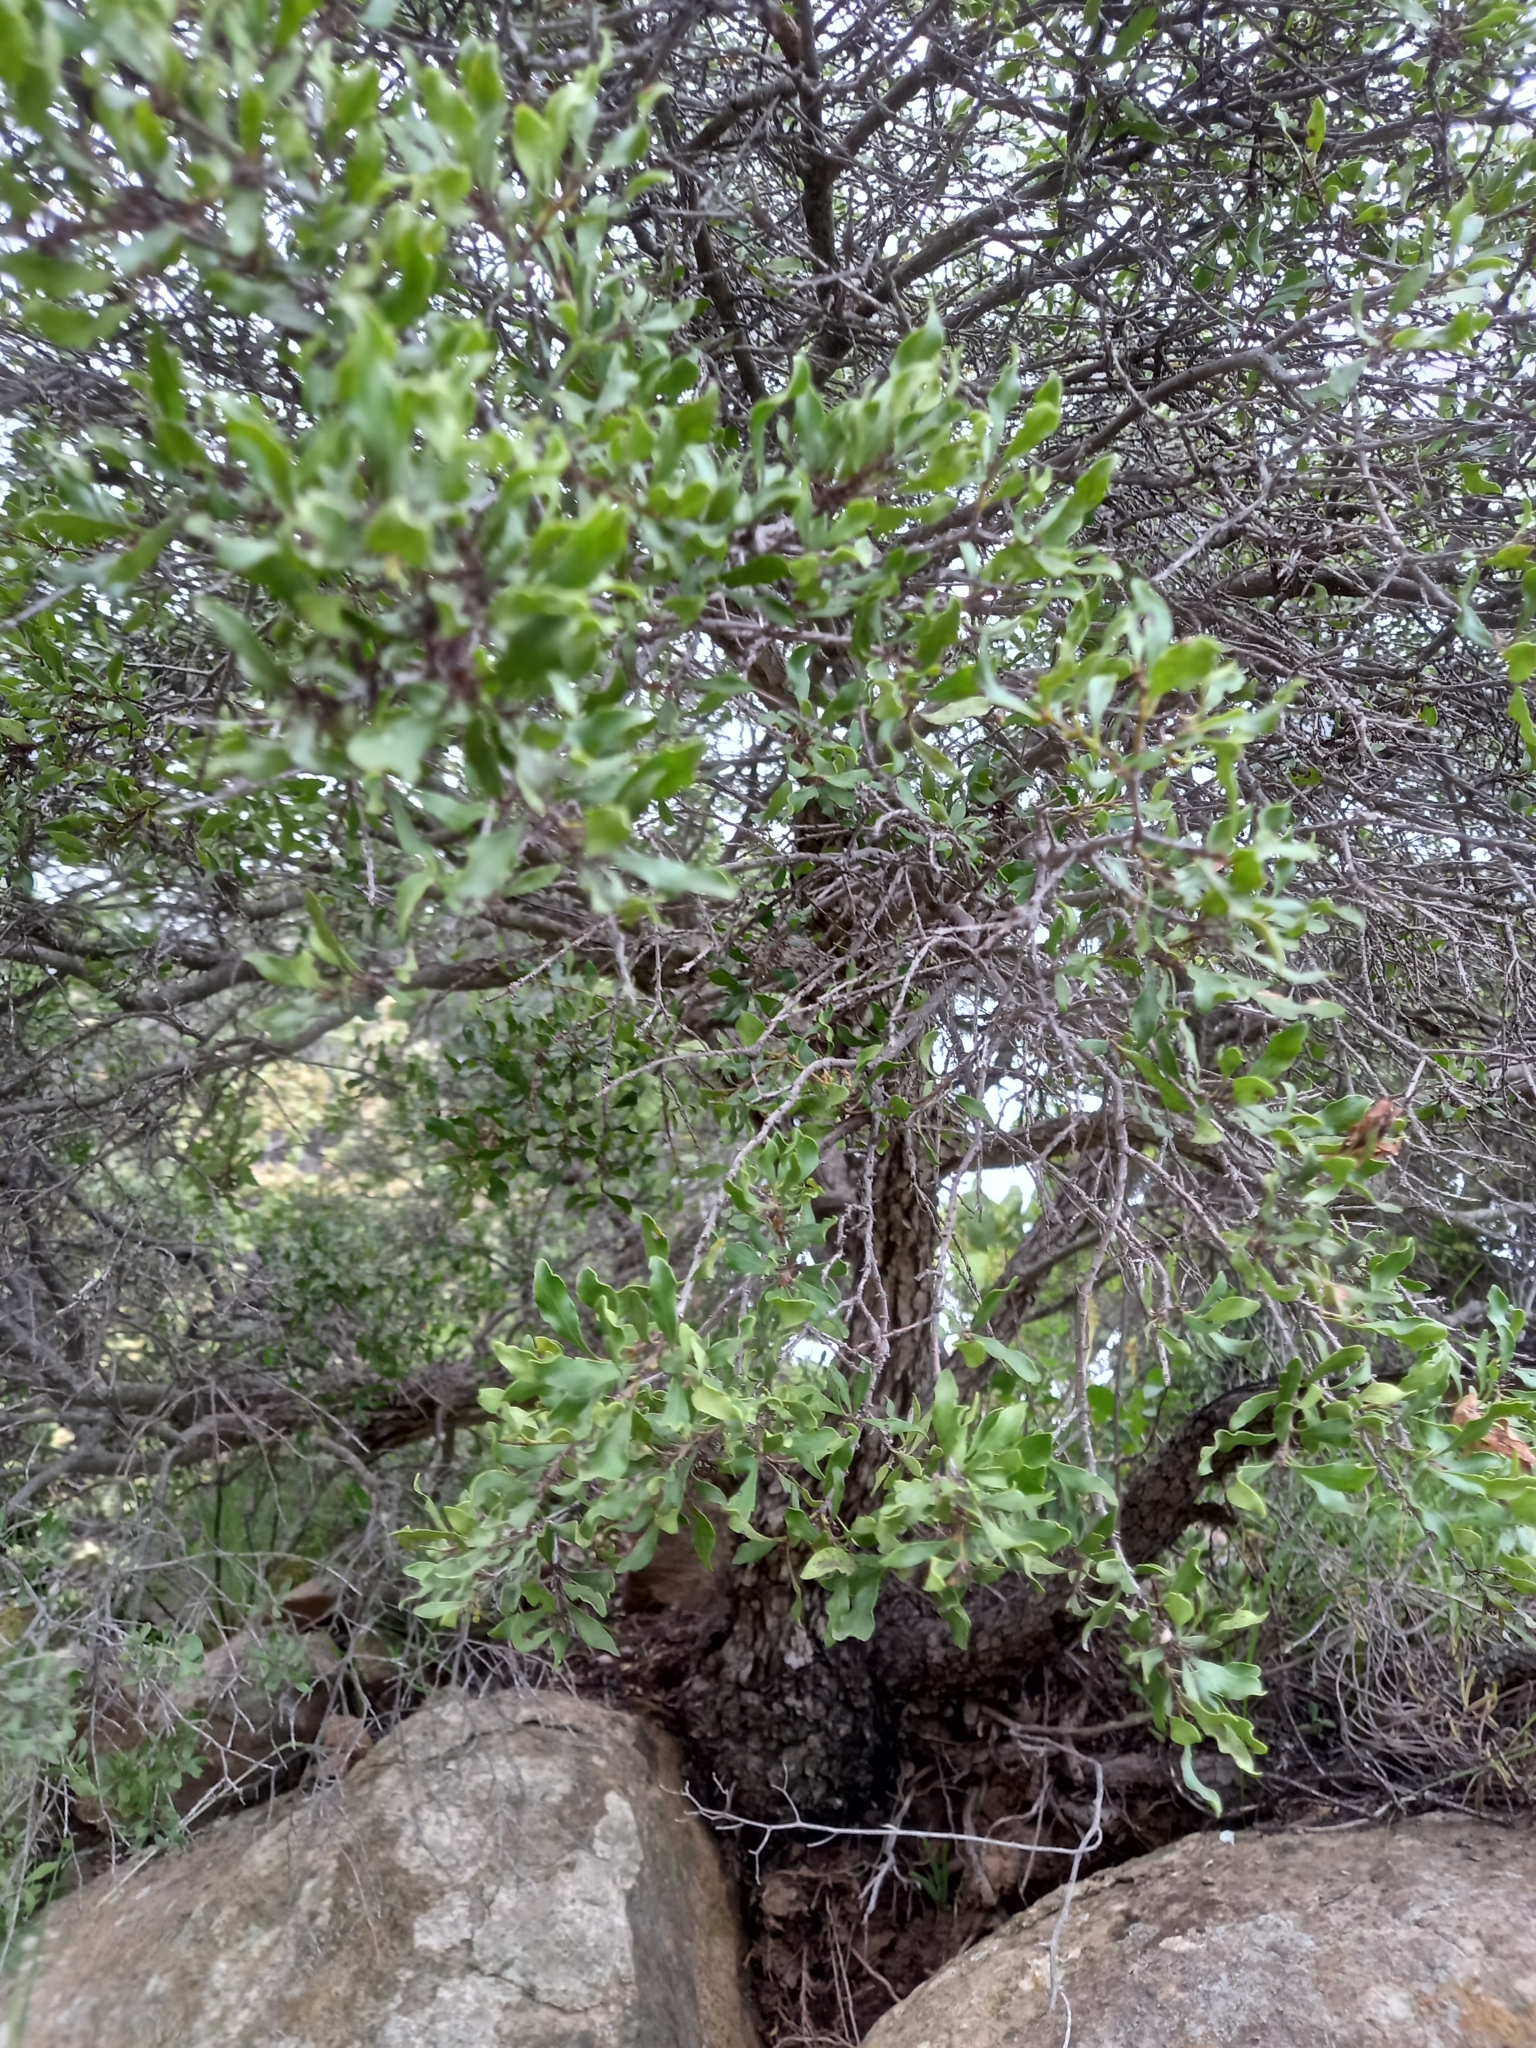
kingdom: Plantae
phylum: Tracheophyta
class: Magnoliopsida
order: Ericales
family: Ebenaceae
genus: Euclea
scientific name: Euclea undulata
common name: Small-leaved guarri
